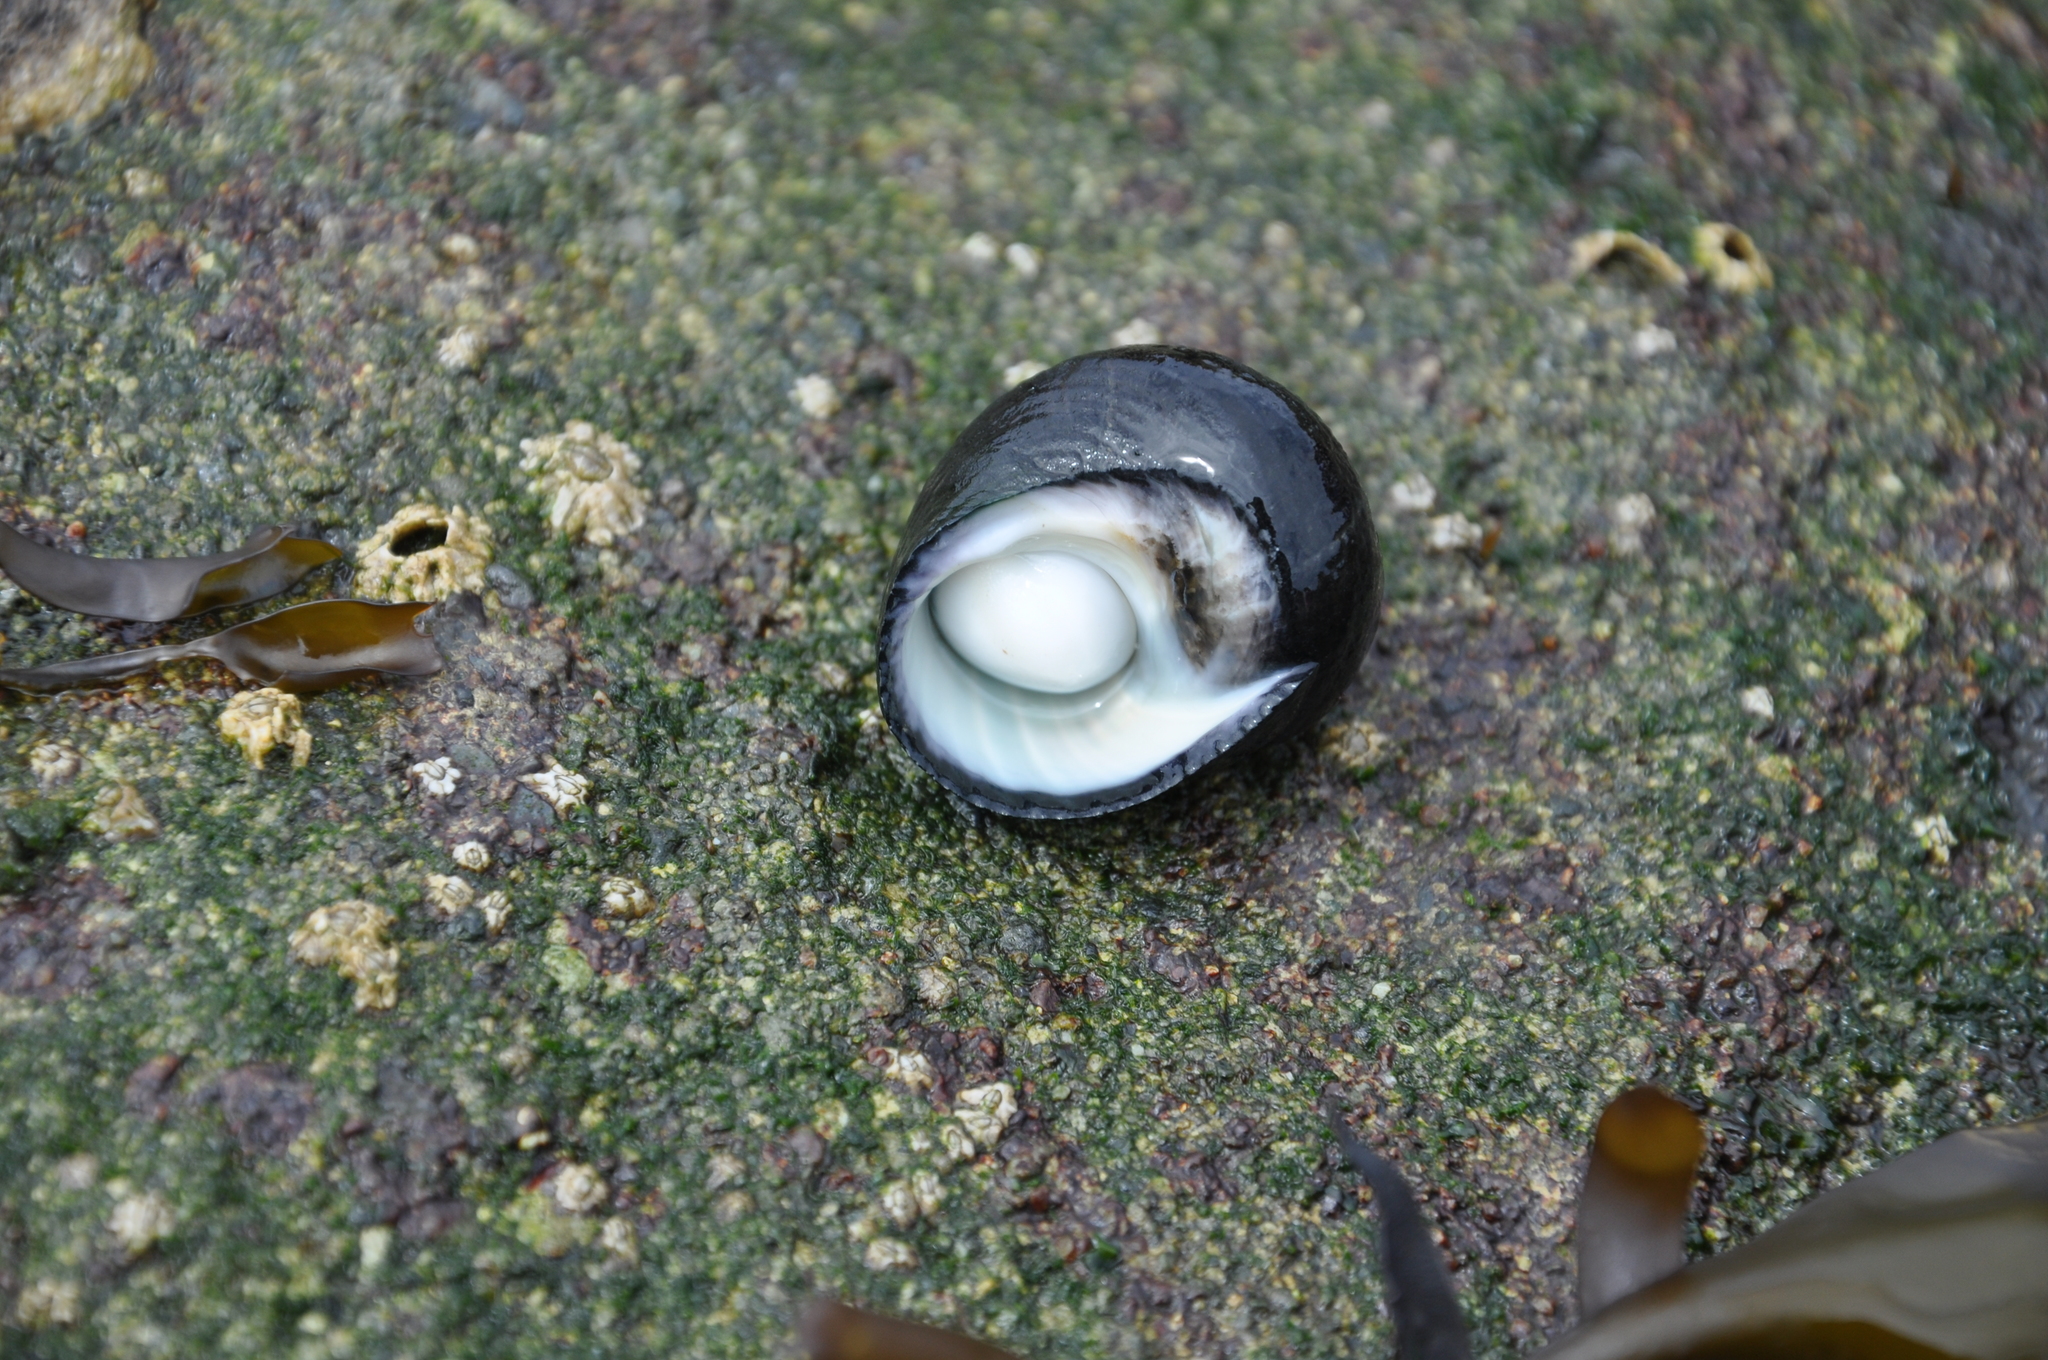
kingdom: Animalia
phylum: Mollusca
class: Gastropoda
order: Trochida
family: Turbinidae
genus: Prisogaster
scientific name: Prisogaster niger
